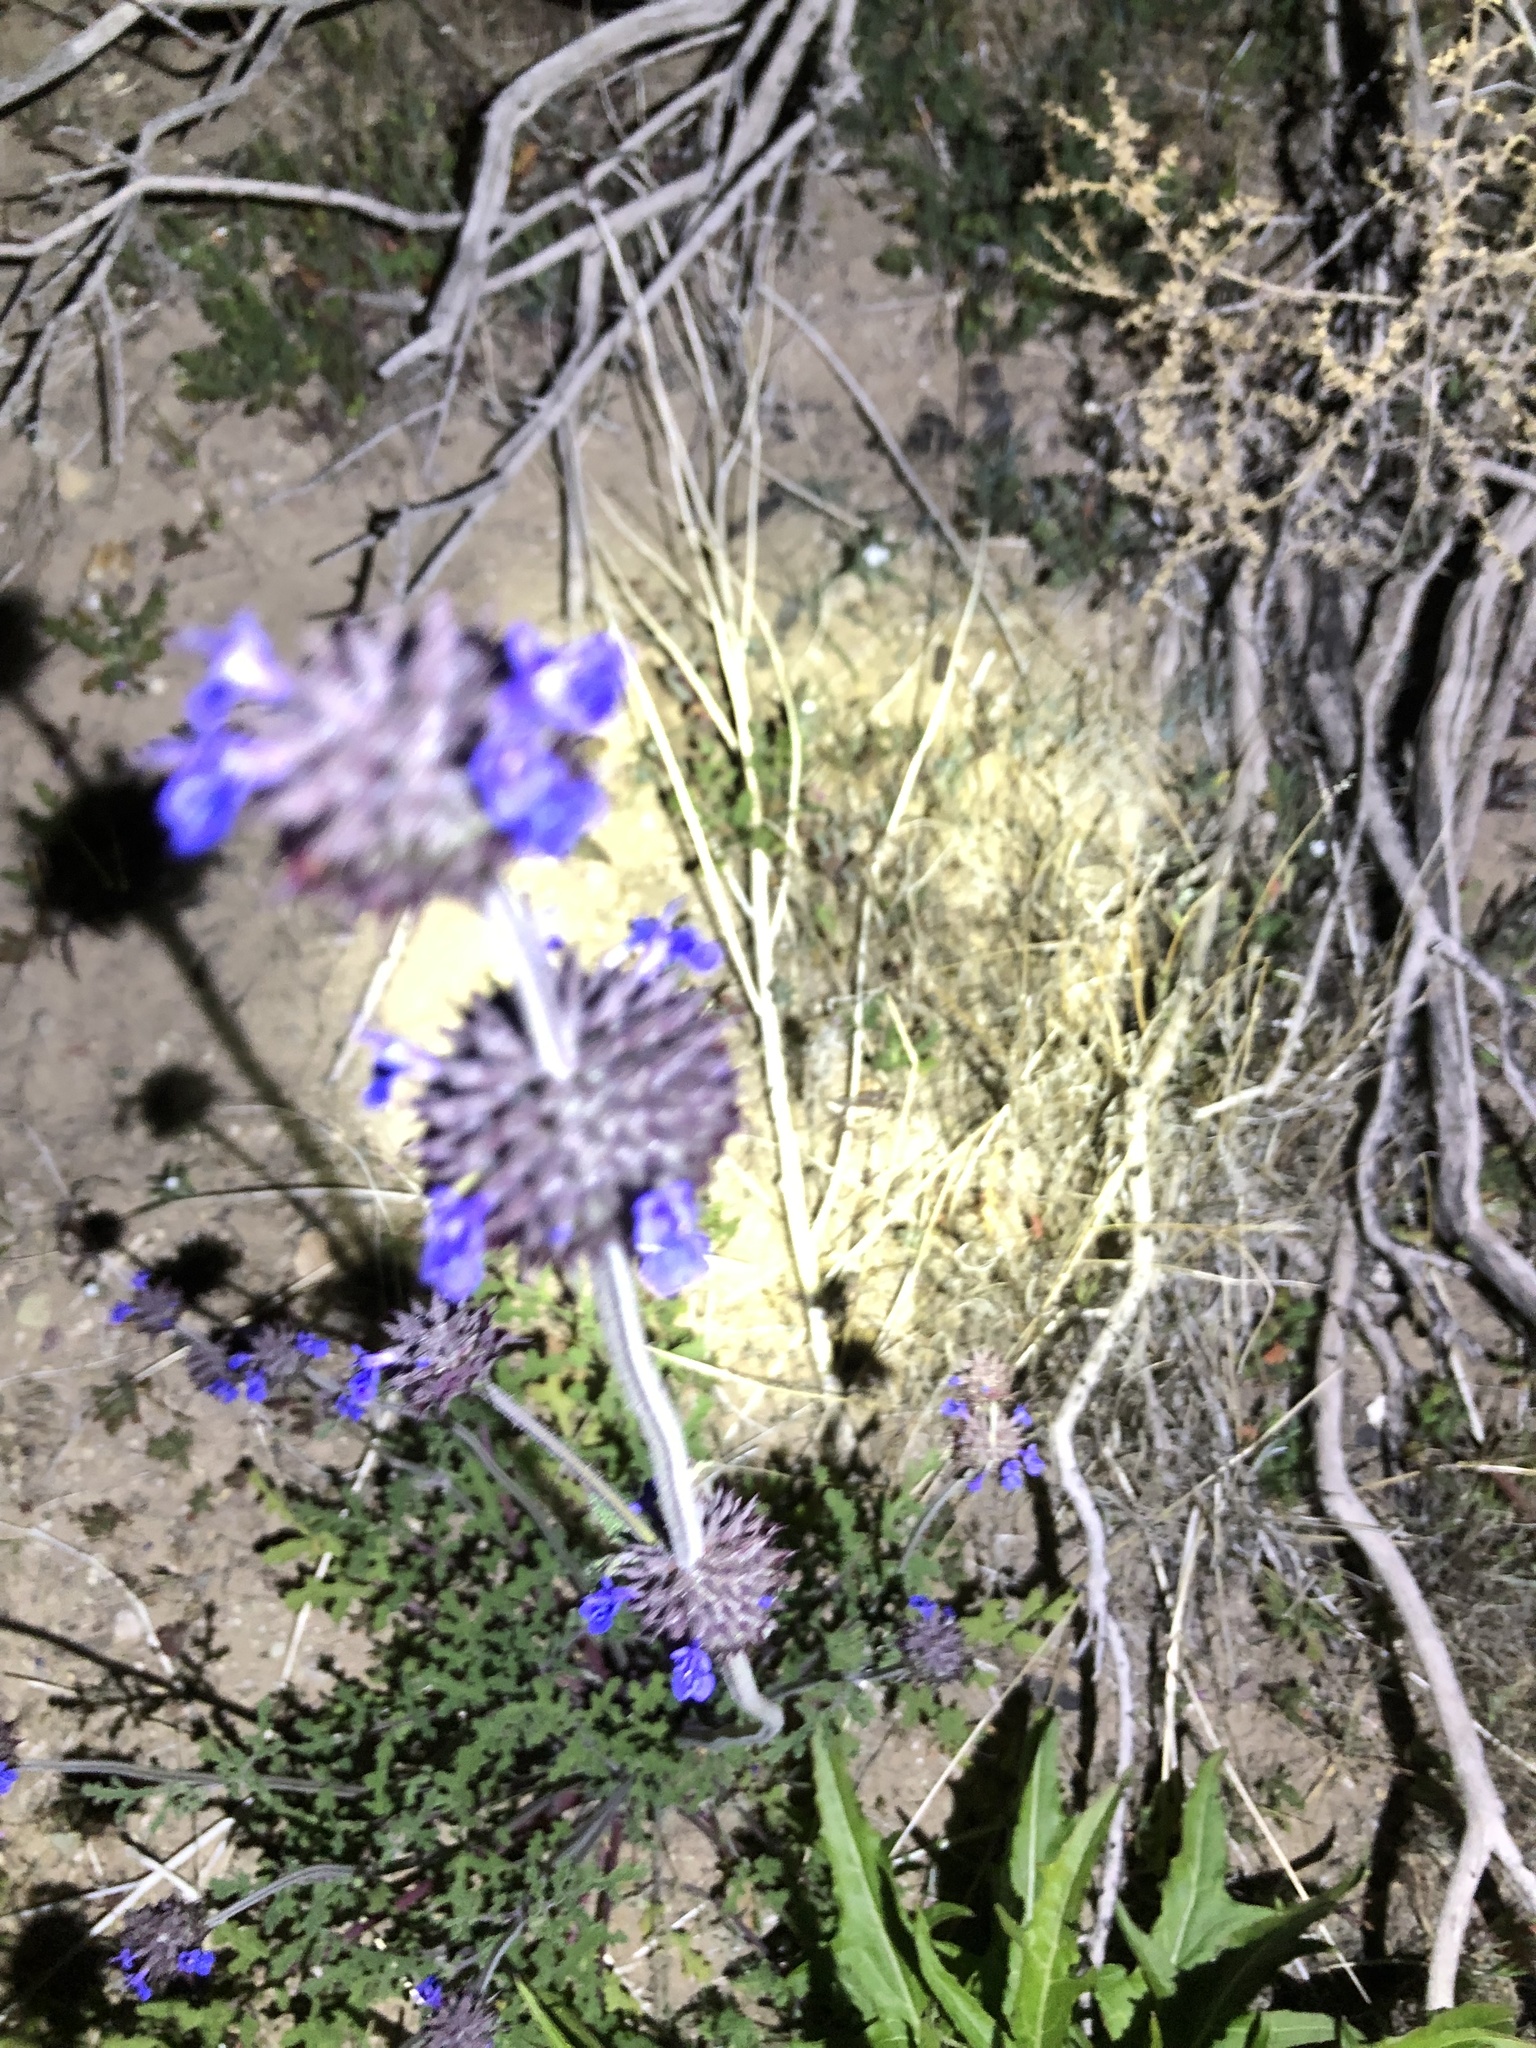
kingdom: Plantae
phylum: Tracheophyta
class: Magnoliopsida
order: Lamiales
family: Lamiaceae
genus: Salvia
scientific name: Salvia columbariae
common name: Chia
